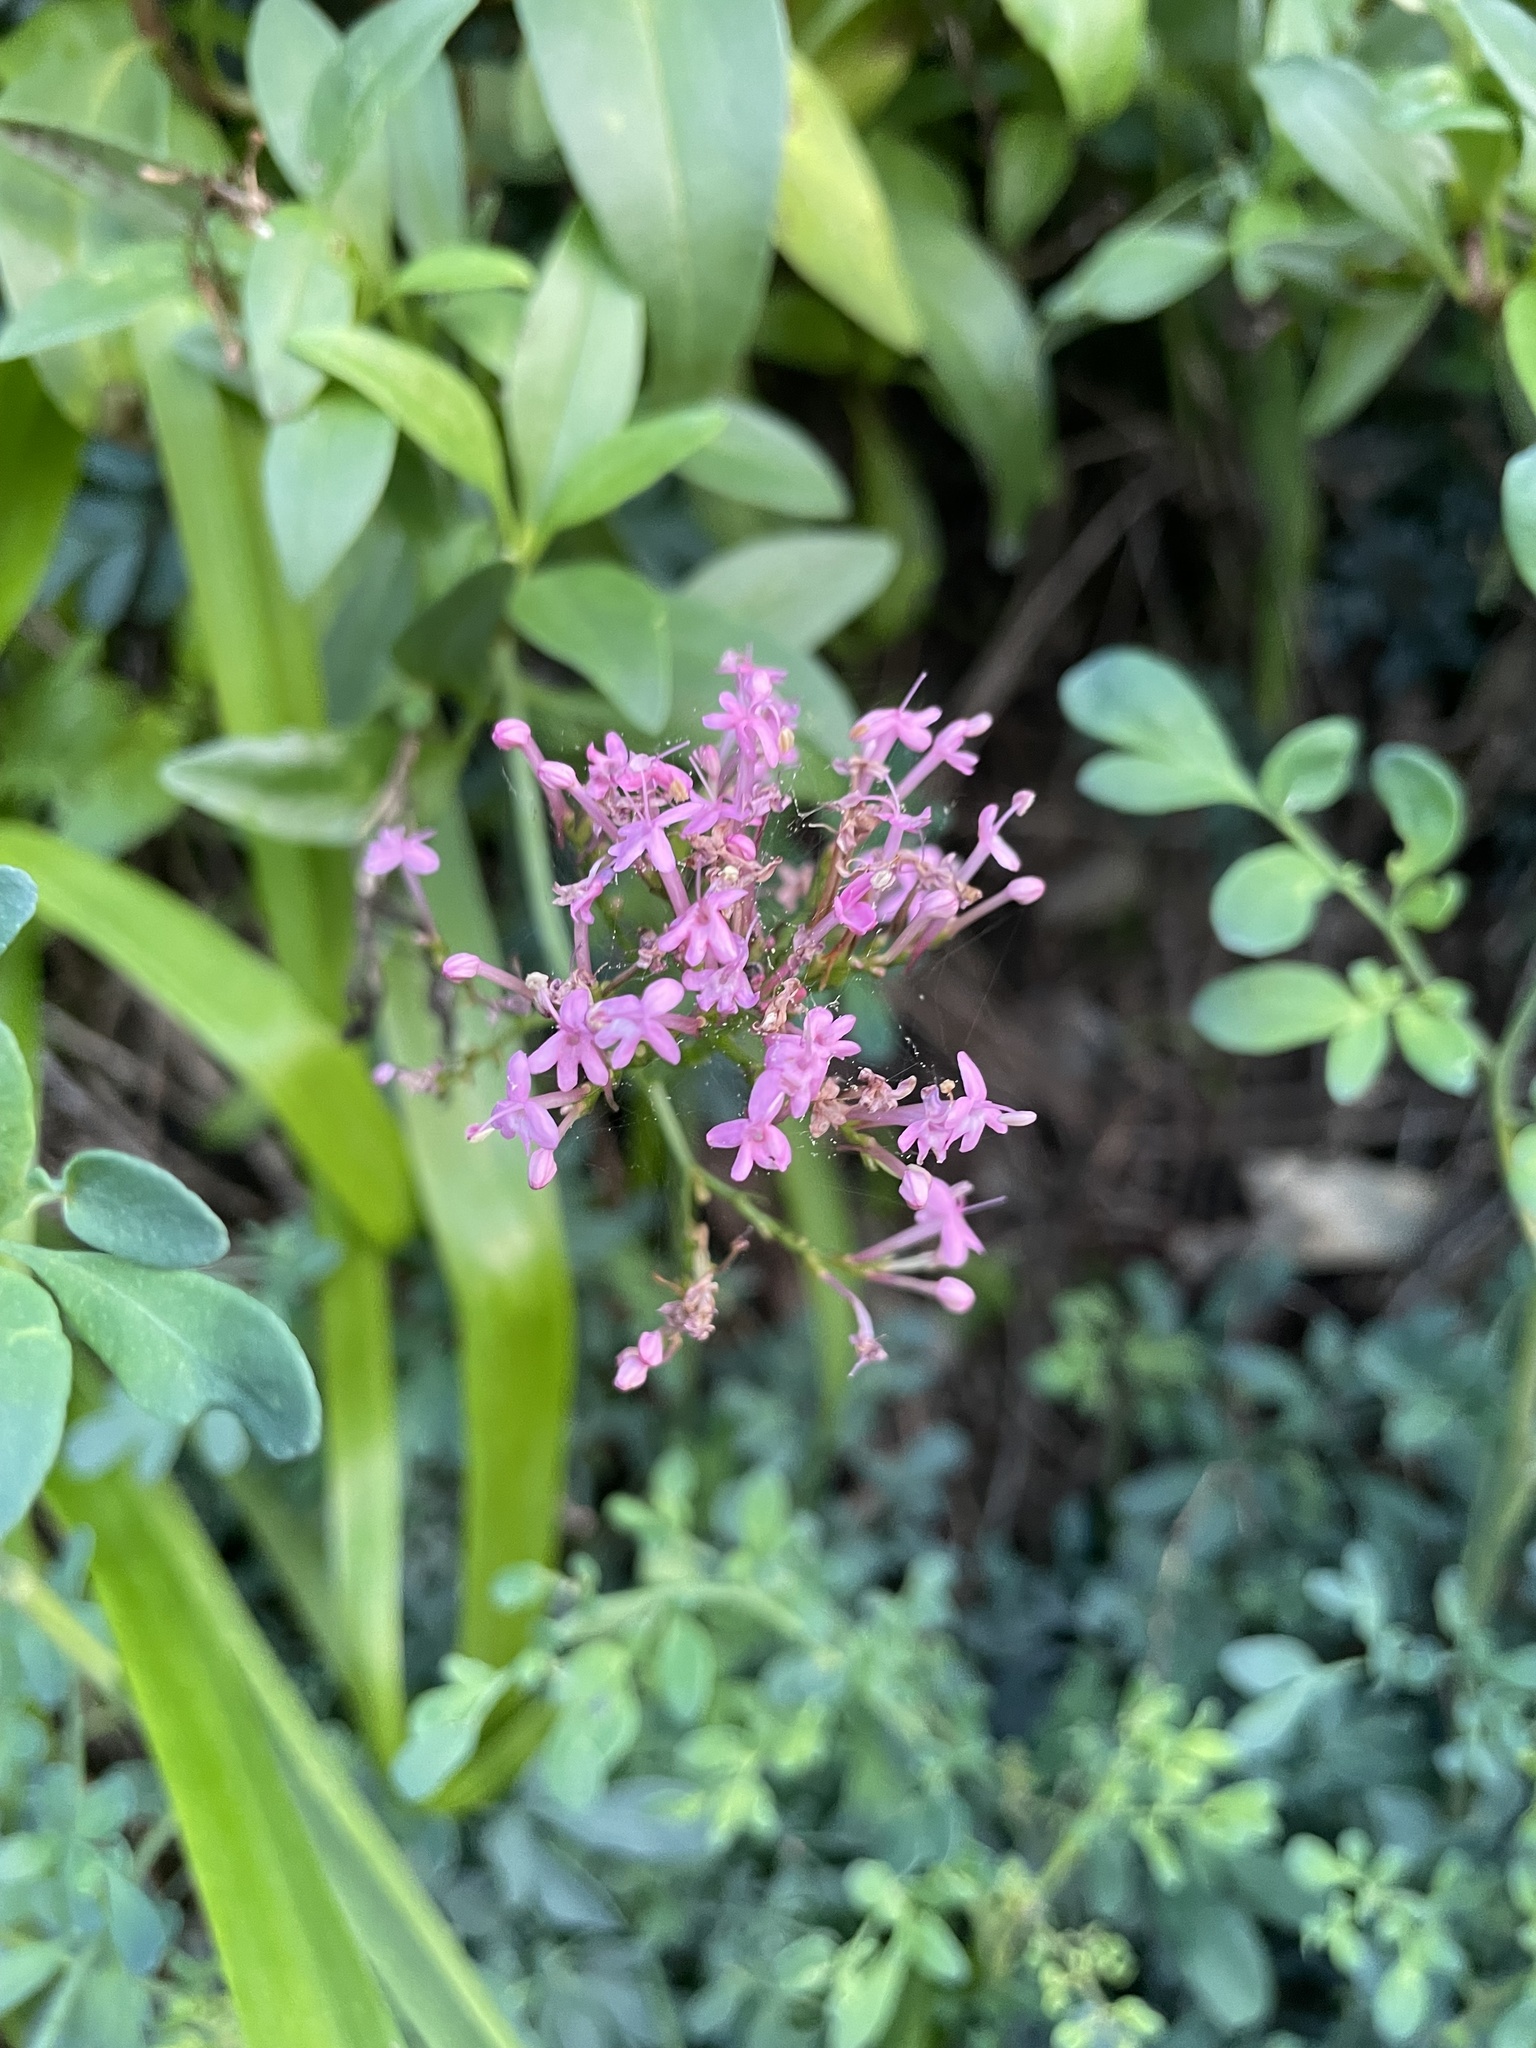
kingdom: Plantae
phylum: Tracheophyta
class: Magnoliopsida
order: Dipsacales
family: Caprifoliaceae
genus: Centranthus
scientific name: Centranthus ruber
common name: Red valerian
